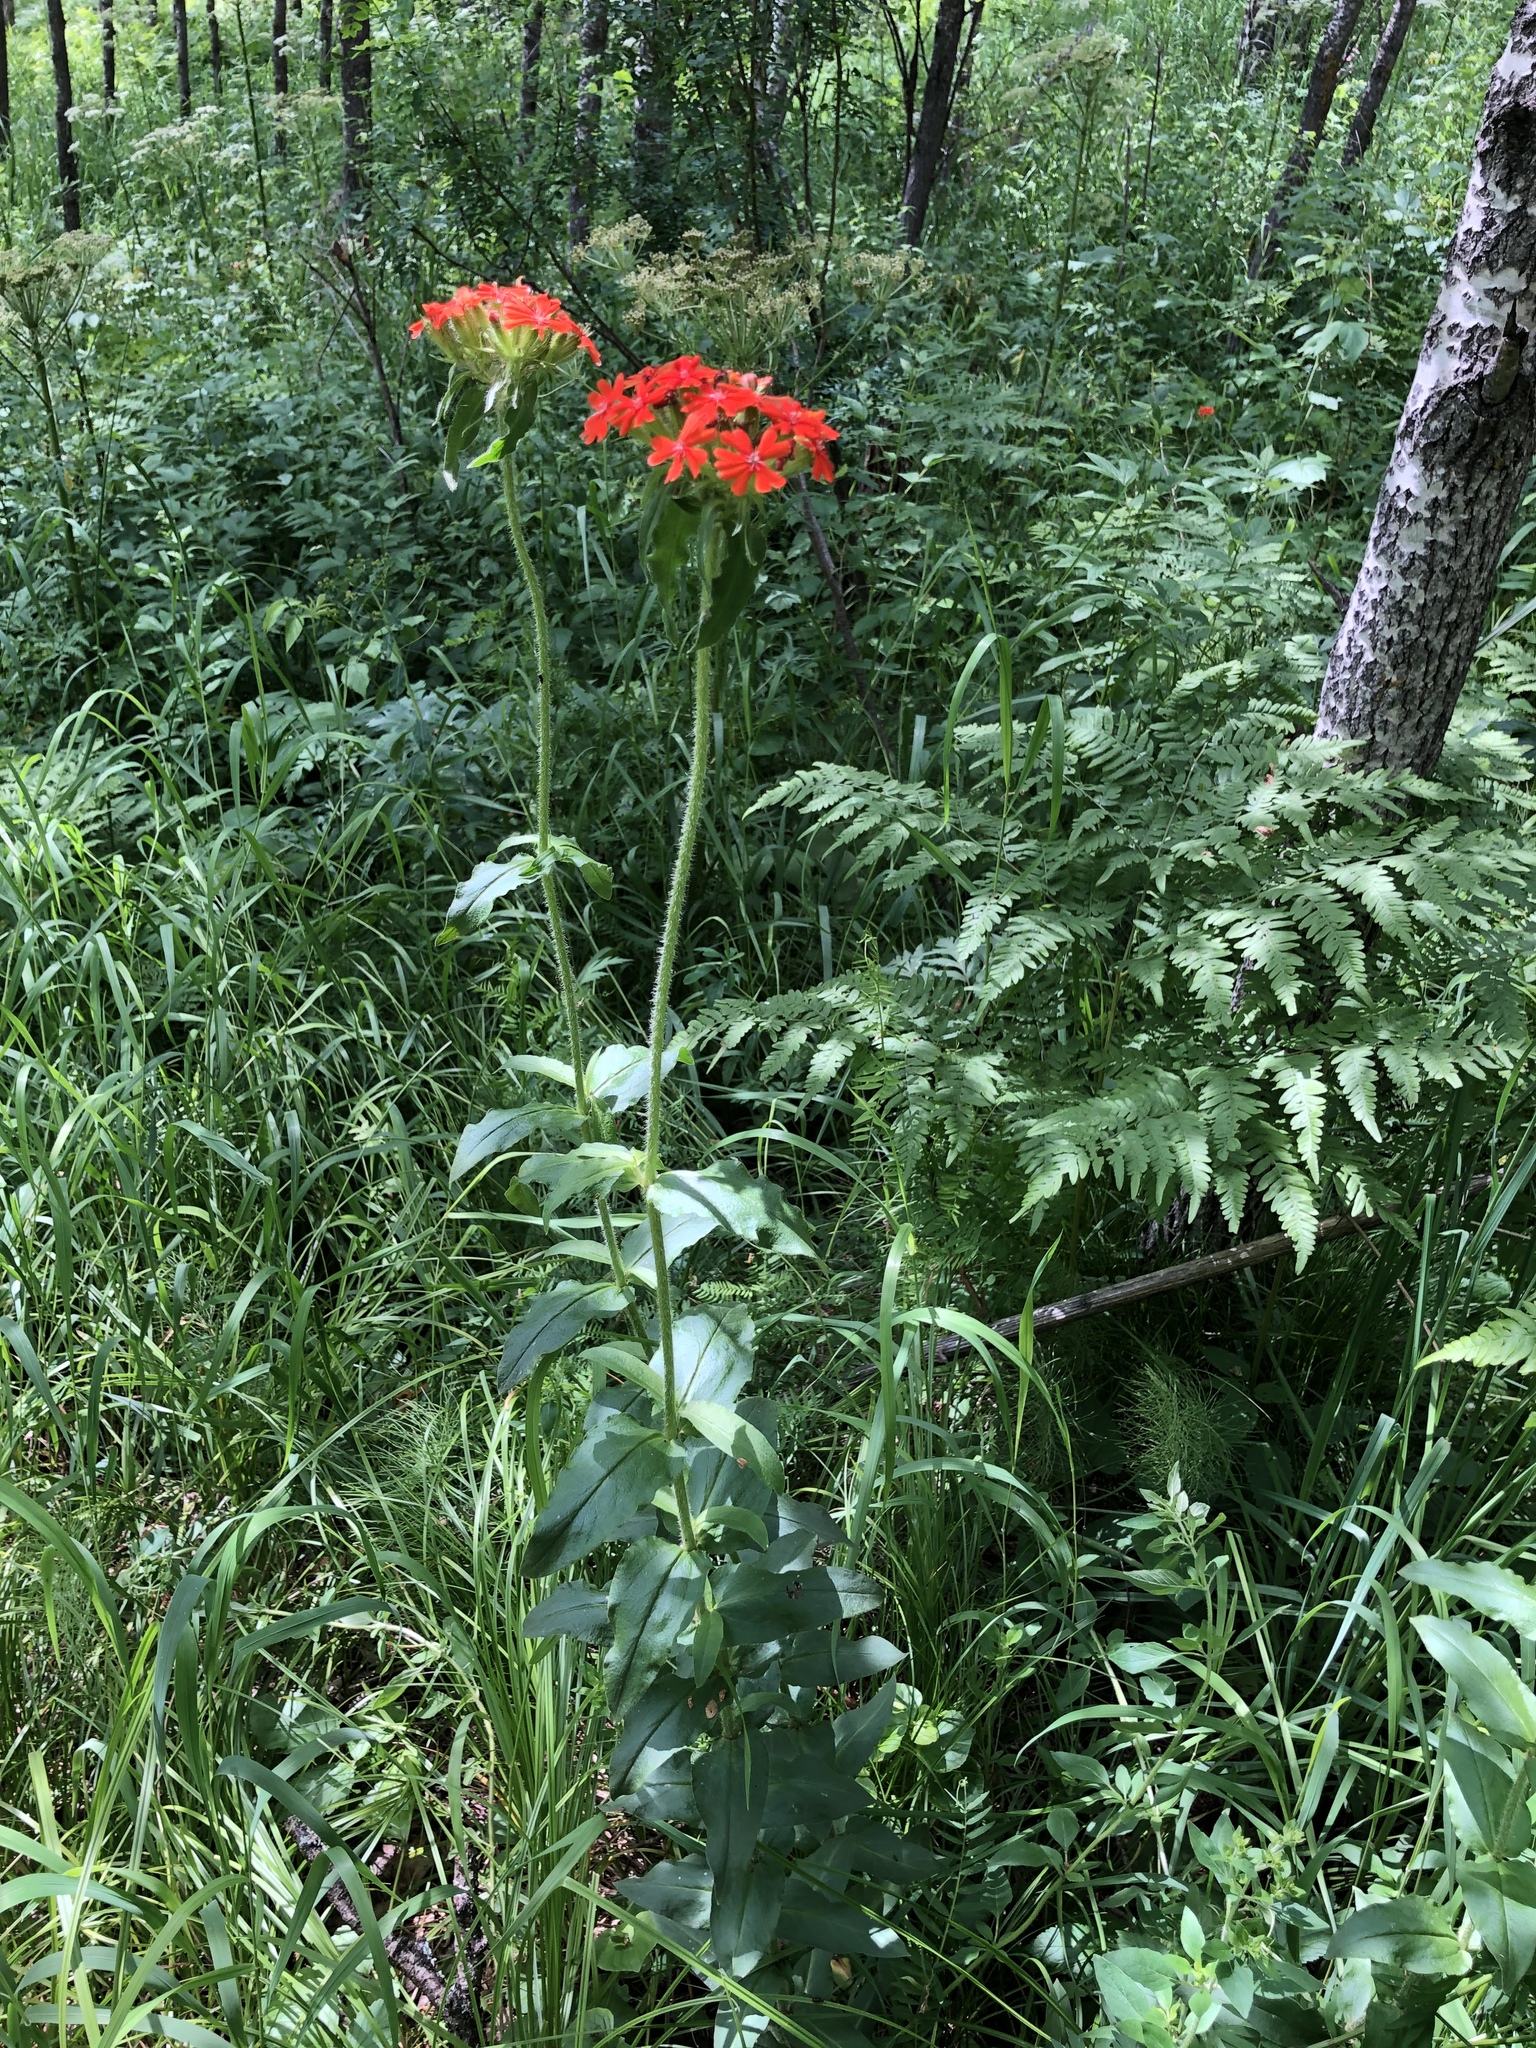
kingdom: Plantae
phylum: Tracheophyta
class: Magnoliopsida
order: Caryophyllales
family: Caryophyllaceae
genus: Silene
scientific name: Silene chalcedonica
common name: Maltese-cross
